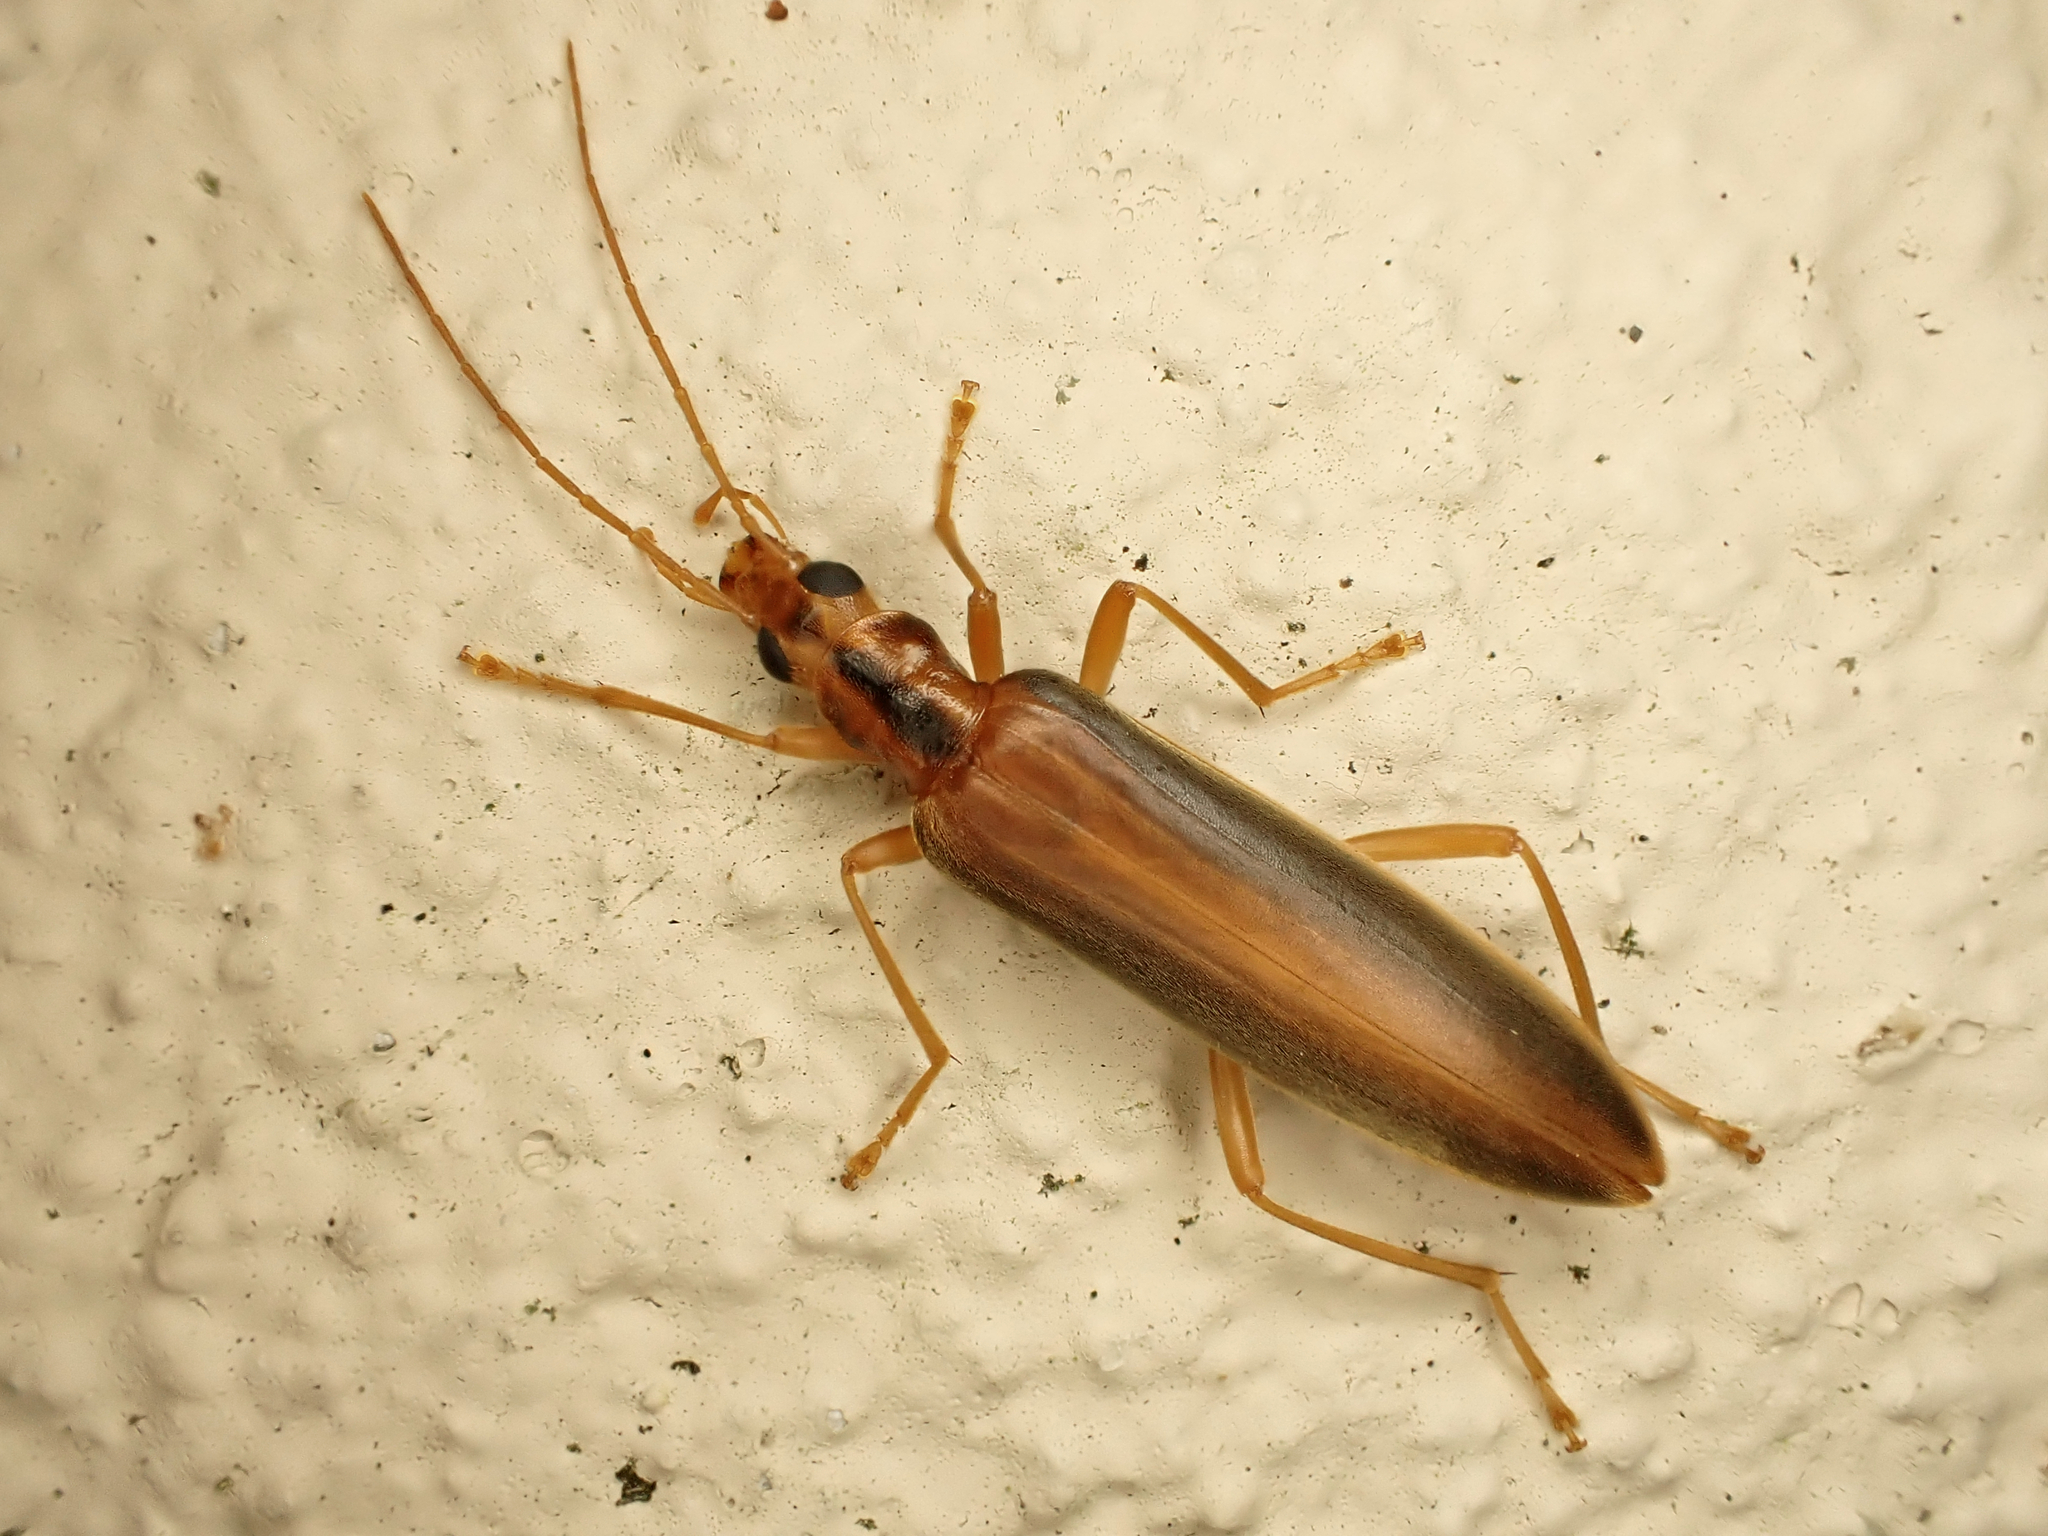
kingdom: Animalia
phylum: Arthropoda
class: Insecta
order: Coleoptera
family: Oedemeridae
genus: Thelyphassa
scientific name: Thelyphassa
